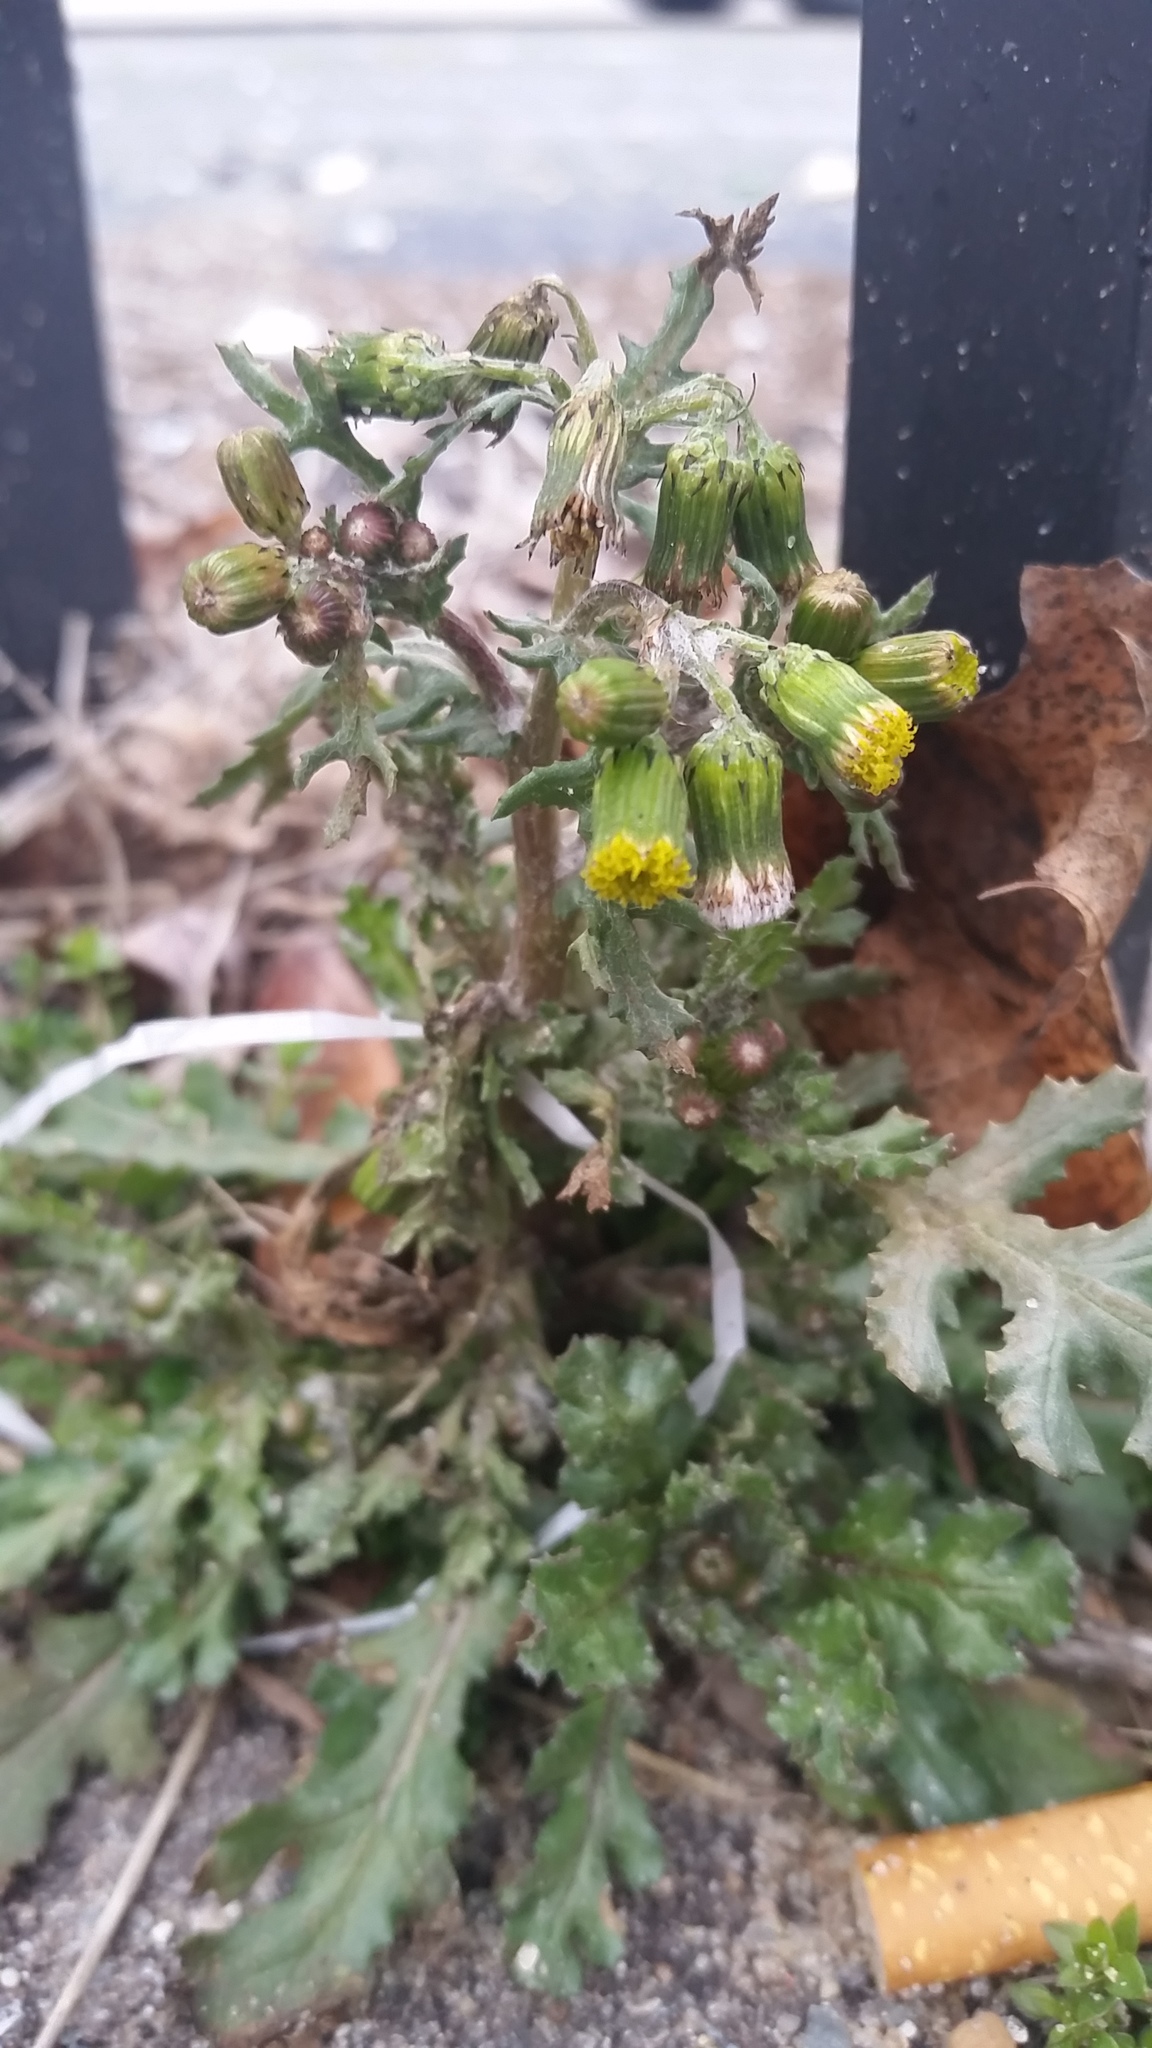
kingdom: Plantae
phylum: Tracheophyta
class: Magnoliopsida
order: Asterales
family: Asteraceae
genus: Senecio
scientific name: Senecio vulgaris
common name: Old-man-in-the-spring
